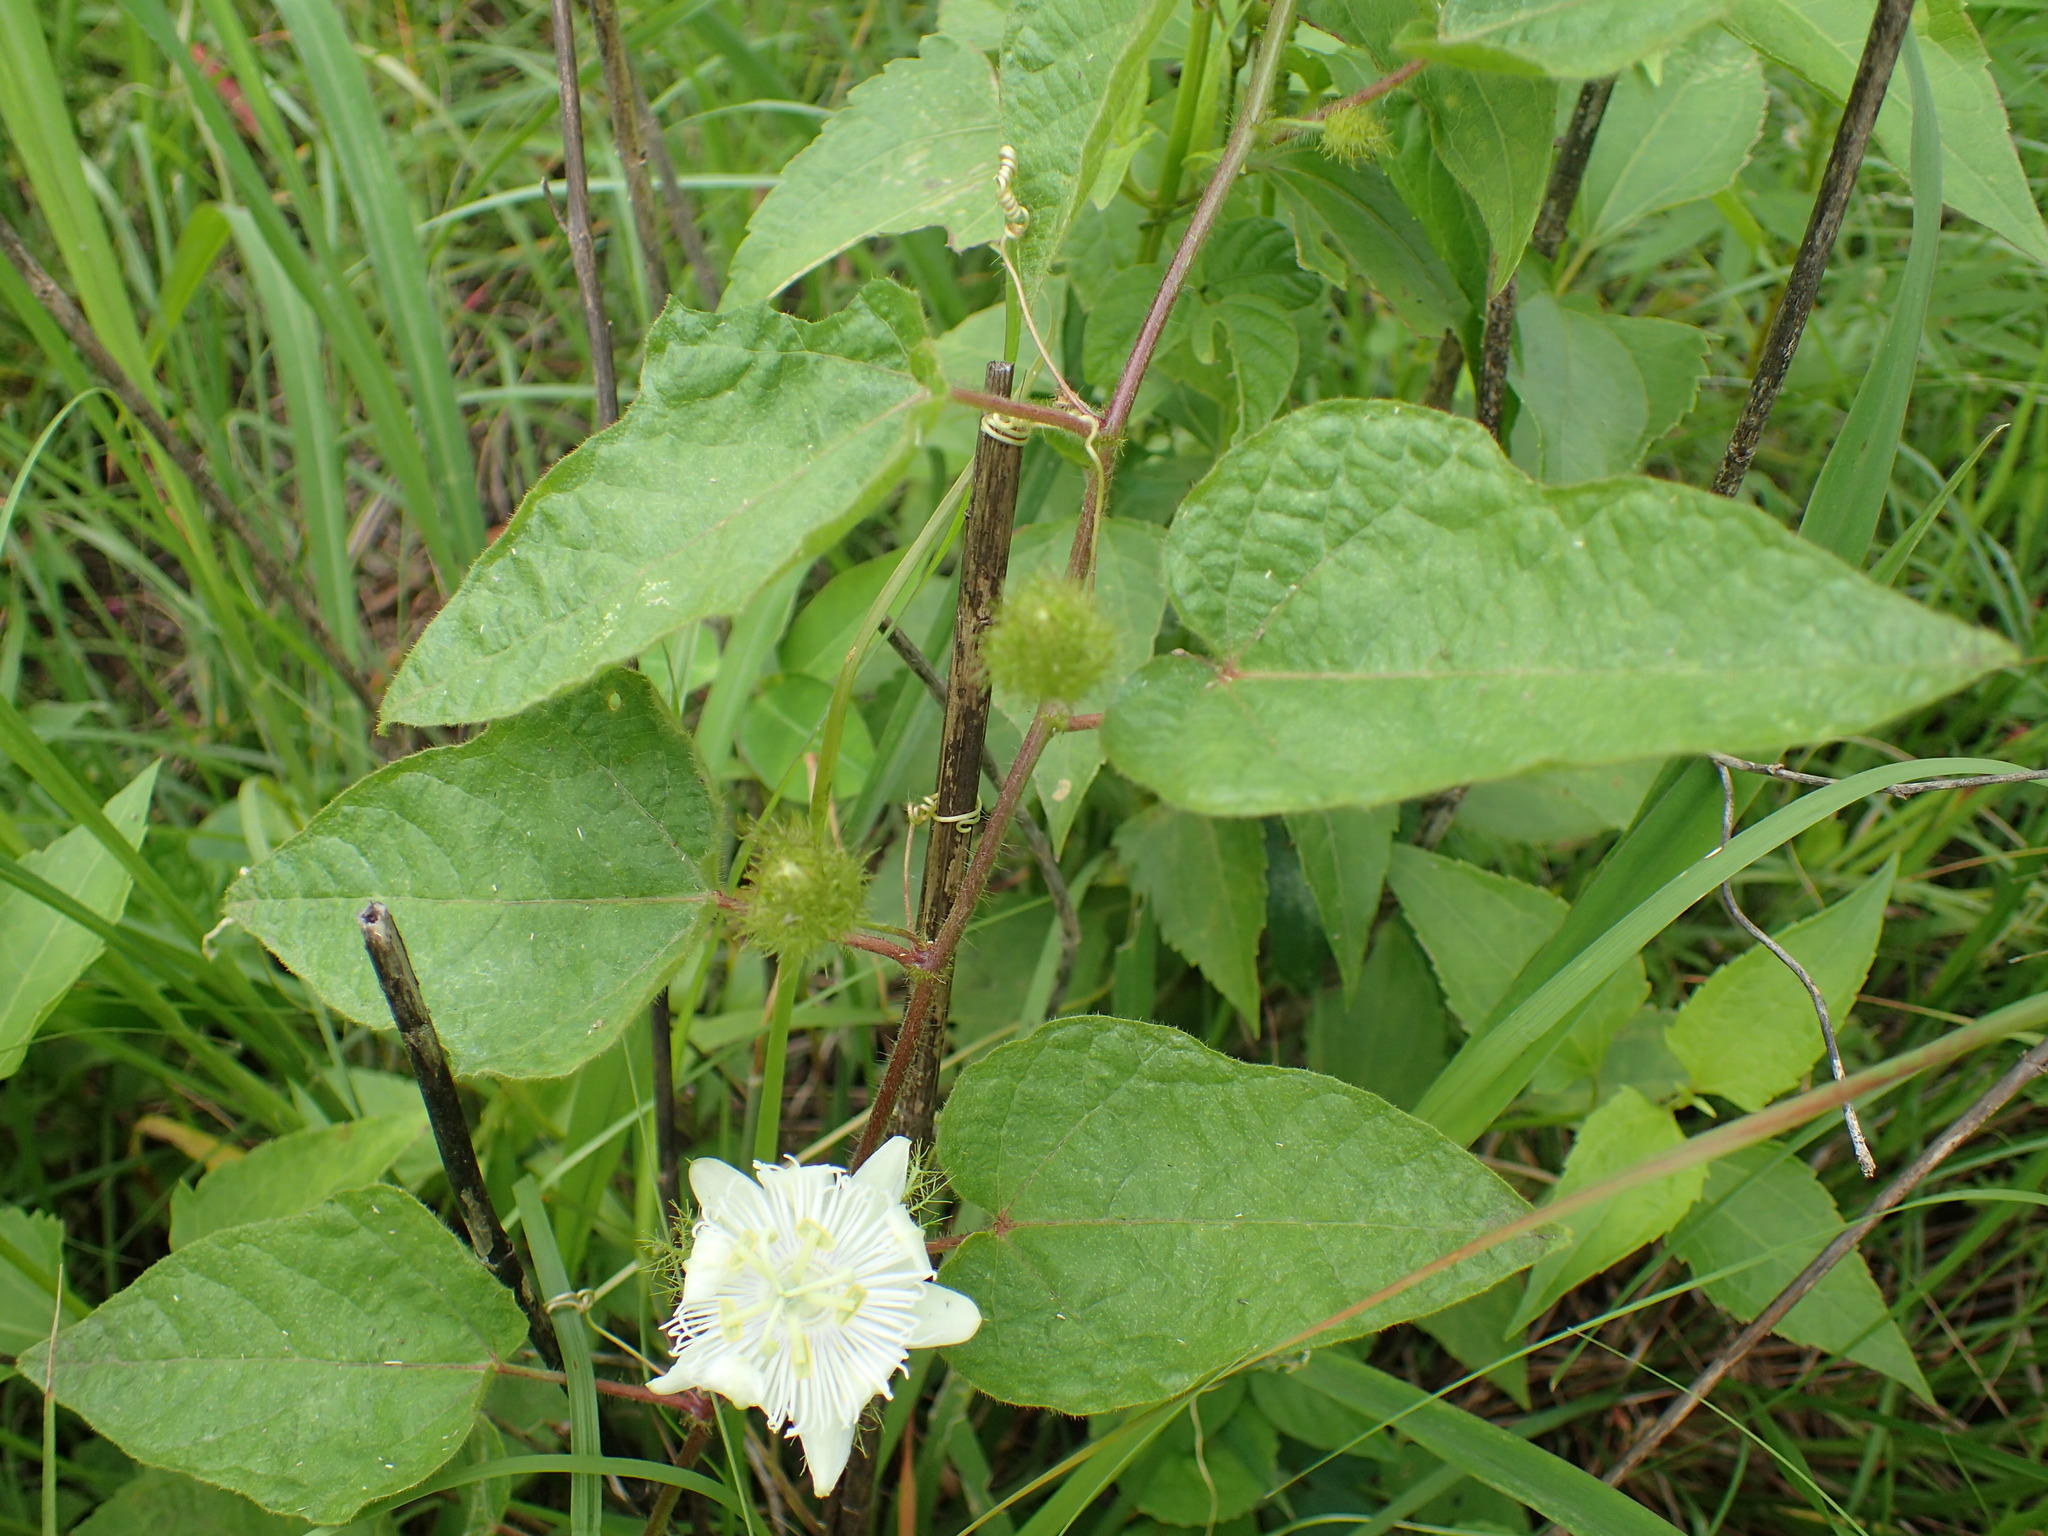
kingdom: Plantae
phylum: Tracheophyta
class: Magnoliopsida
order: Malpighiales
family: Passifloraceae
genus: Passiflora
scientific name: Passiflora foetida
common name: Fetid passionflower
